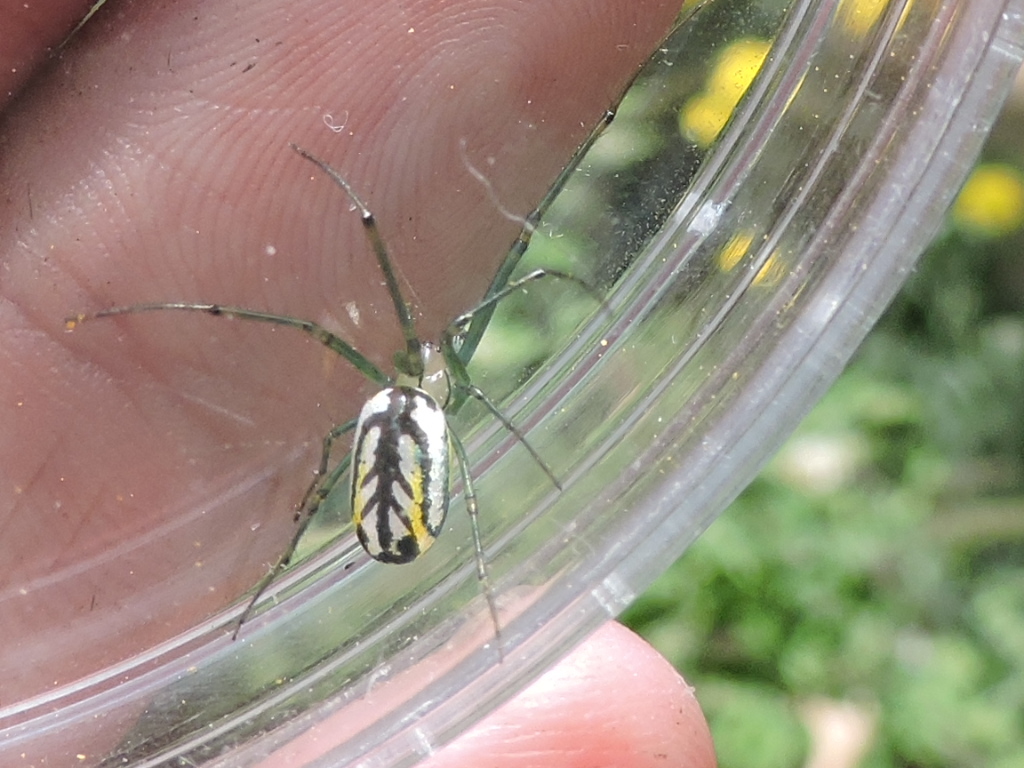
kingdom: Animalia
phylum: Arthropoda
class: Arachnida
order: Araneae
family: Tetragnathidae
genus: Leucauge
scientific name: Leucauge venusta
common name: Longjawed orb weavers
